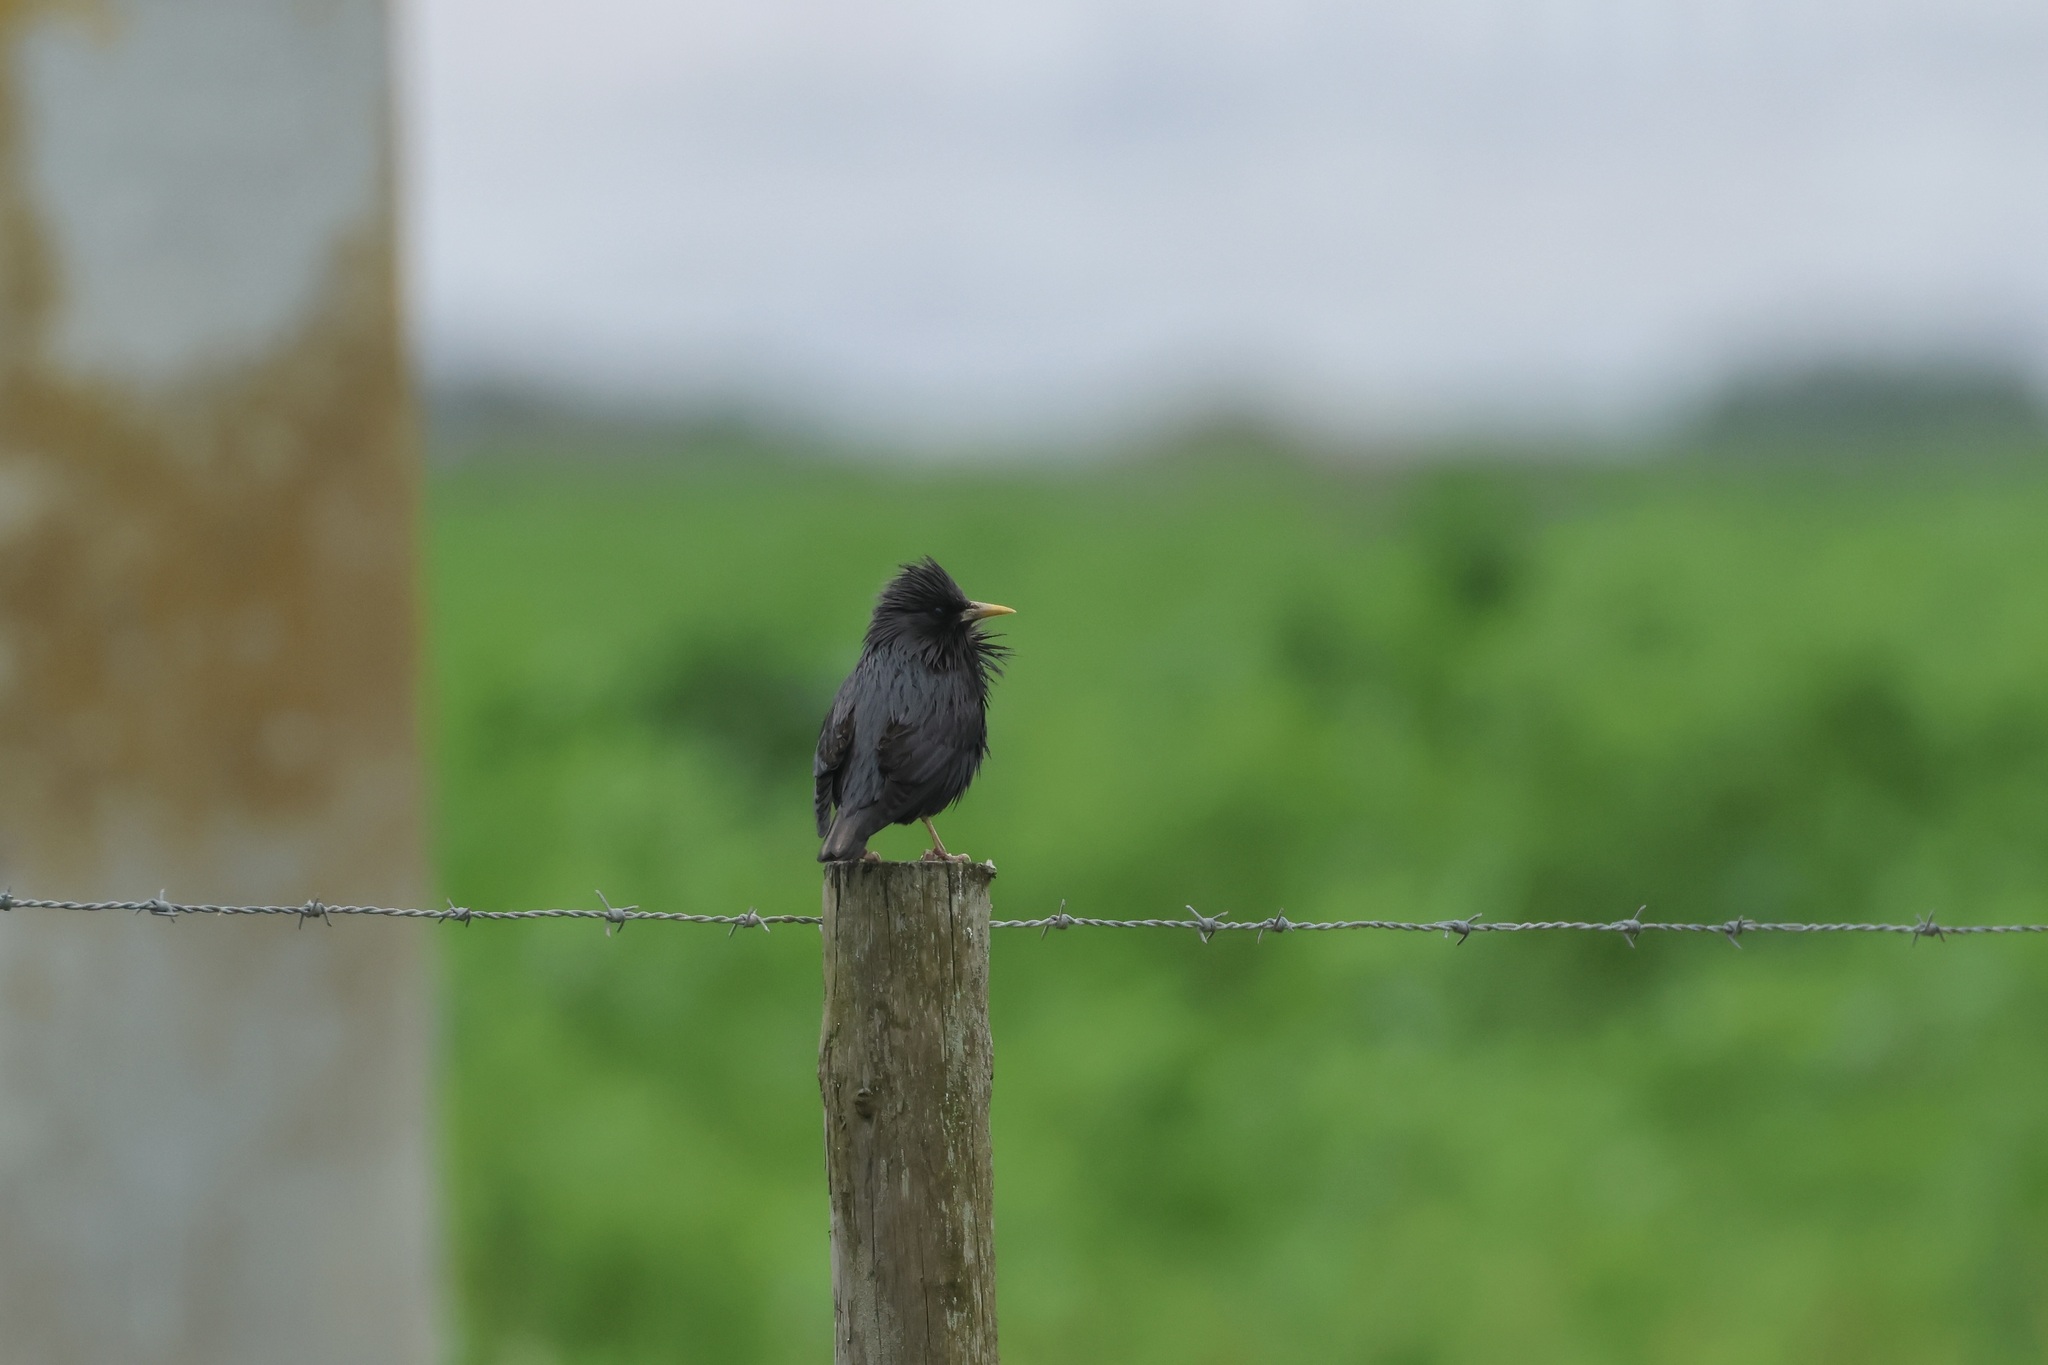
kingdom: Animalia
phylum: Chordata
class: Aves
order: Passeriformes
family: Sturnidae
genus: Sturnus
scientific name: Sturnus unicolor
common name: Spotless starling
